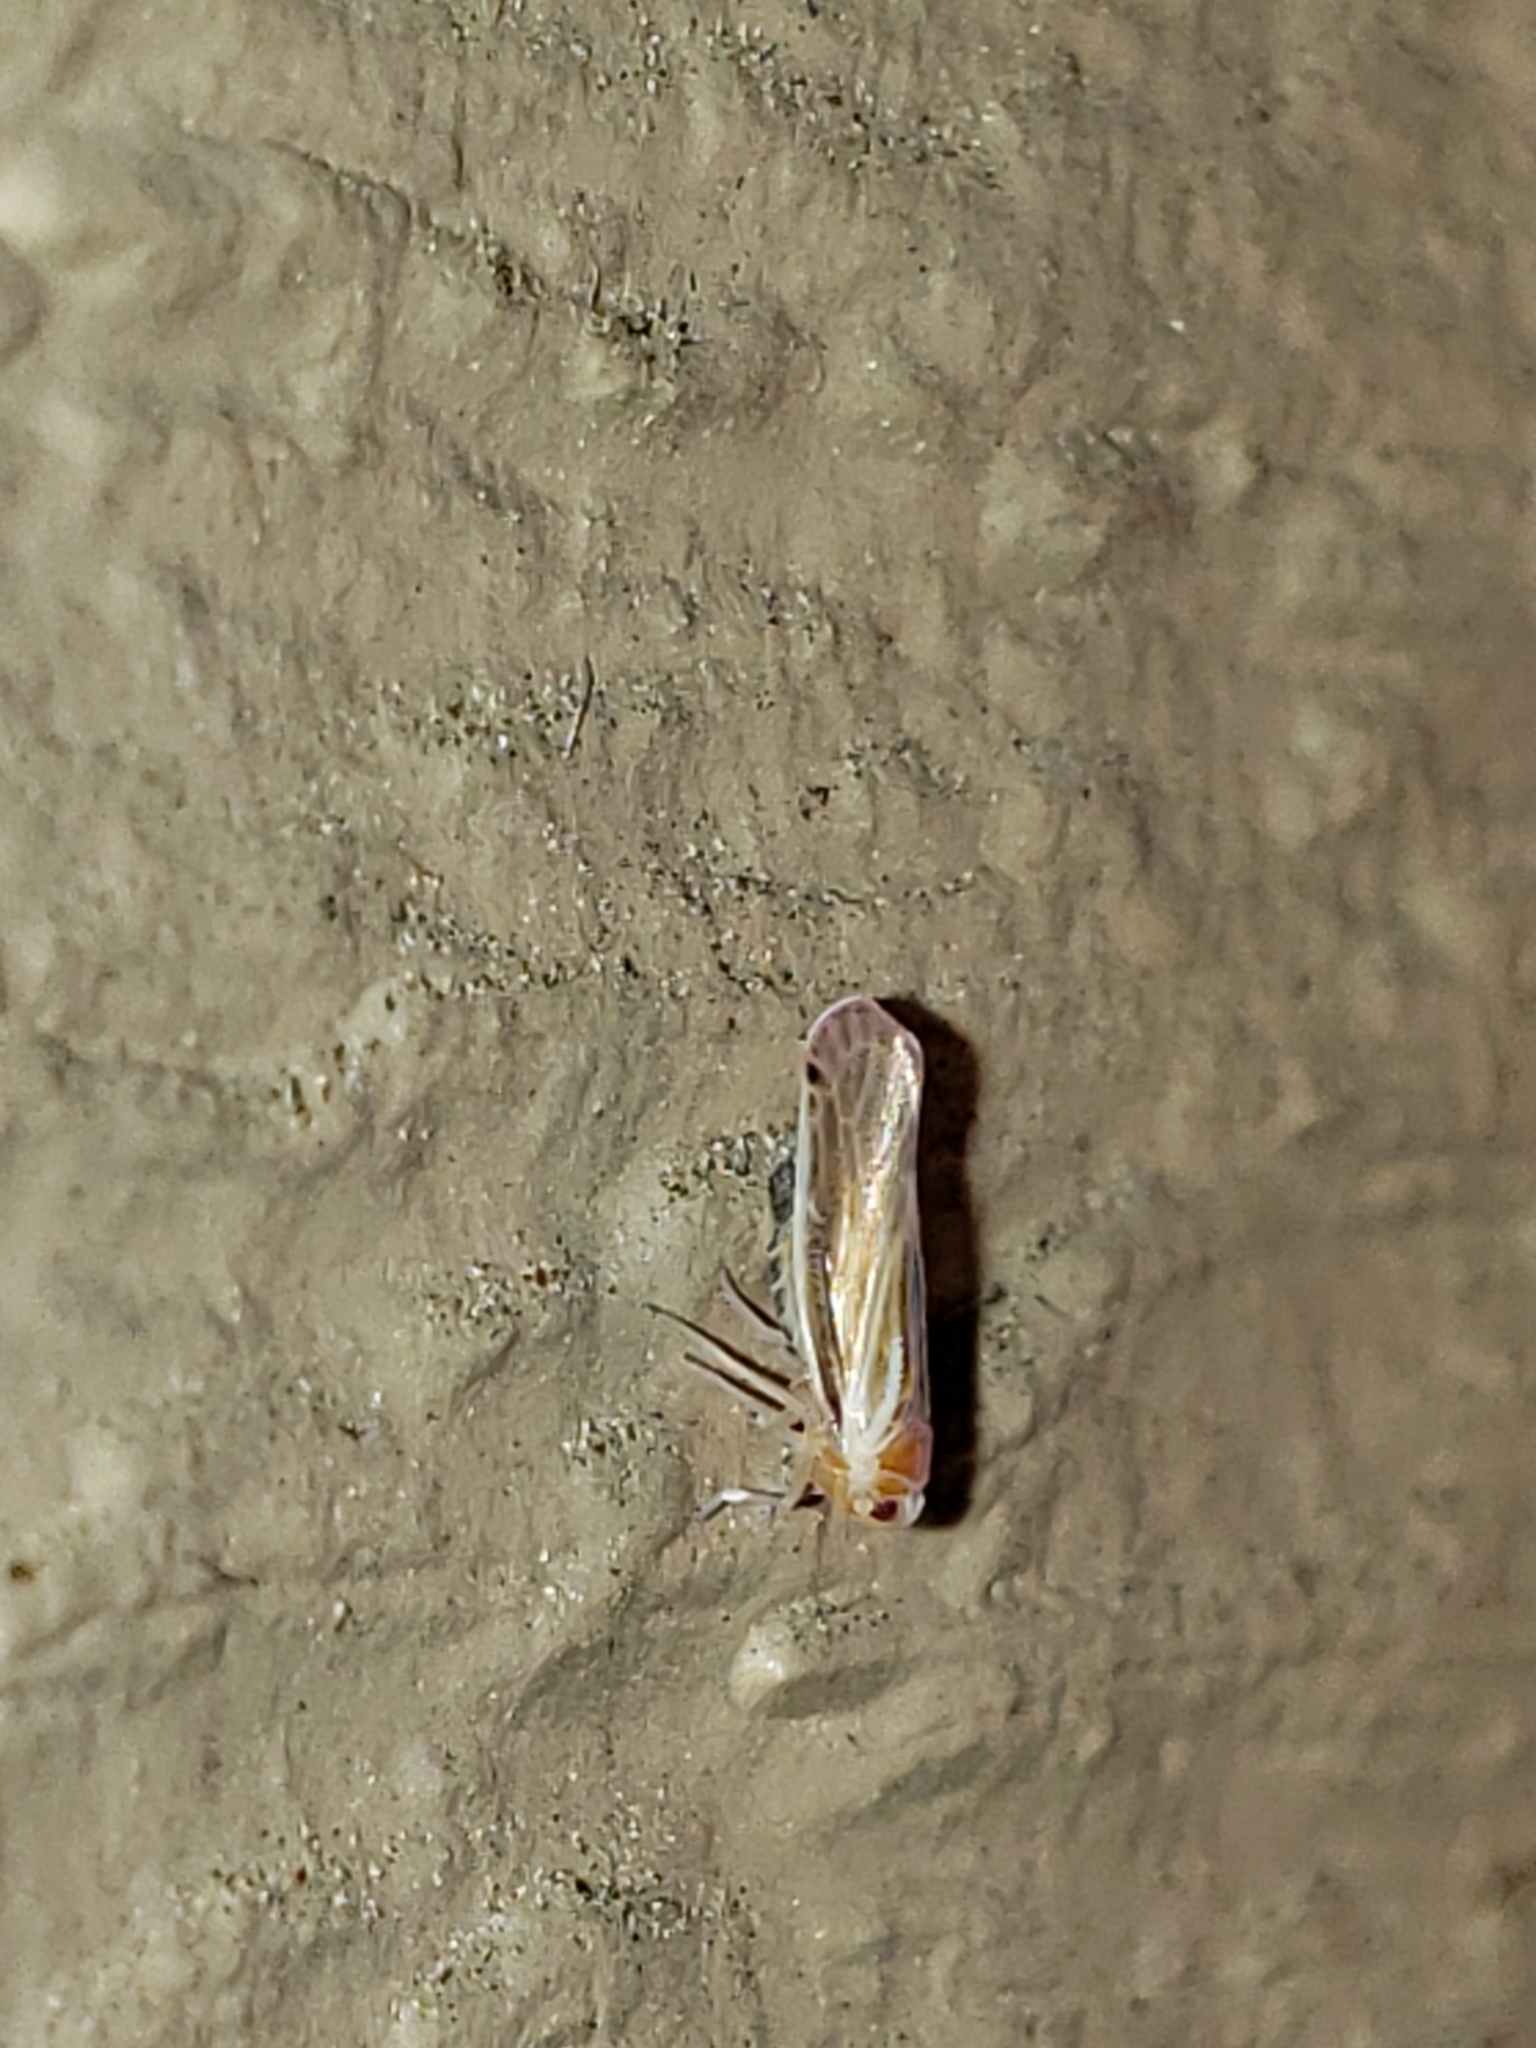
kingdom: Animalia
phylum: Arthropoda
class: Insecta
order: Hemiptera
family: Derbidae
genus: Omolicna
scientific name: Omolicna uhleri
